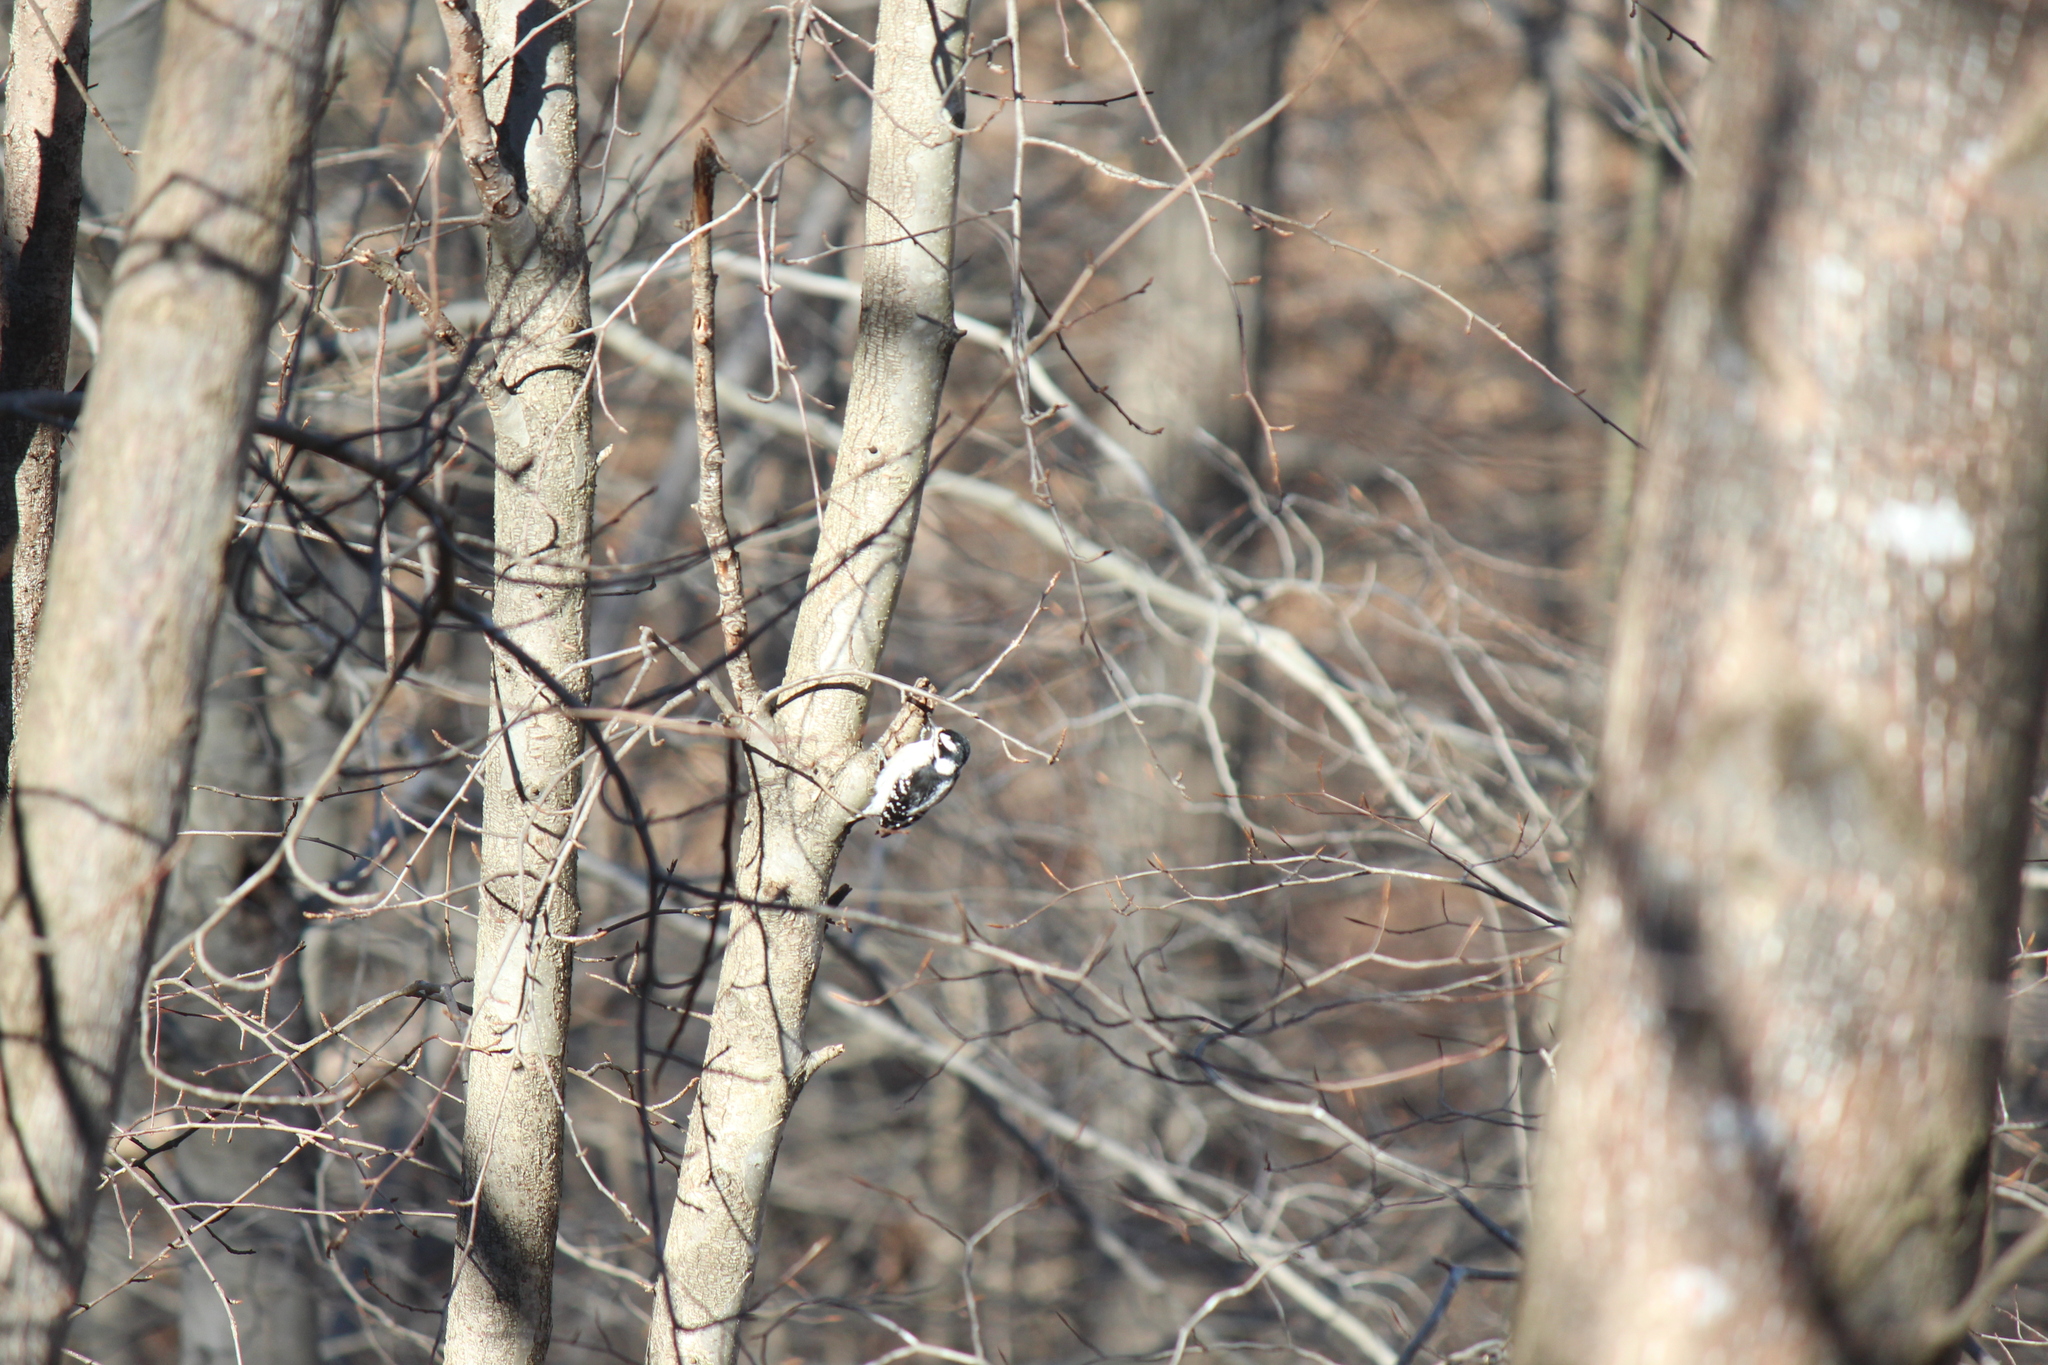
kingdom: Animalia
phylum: Chordata
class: Aves
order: Piciformes
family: Picidae
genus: Dryobates
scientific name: Dryobates pubescens
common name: Downy woodpecker
